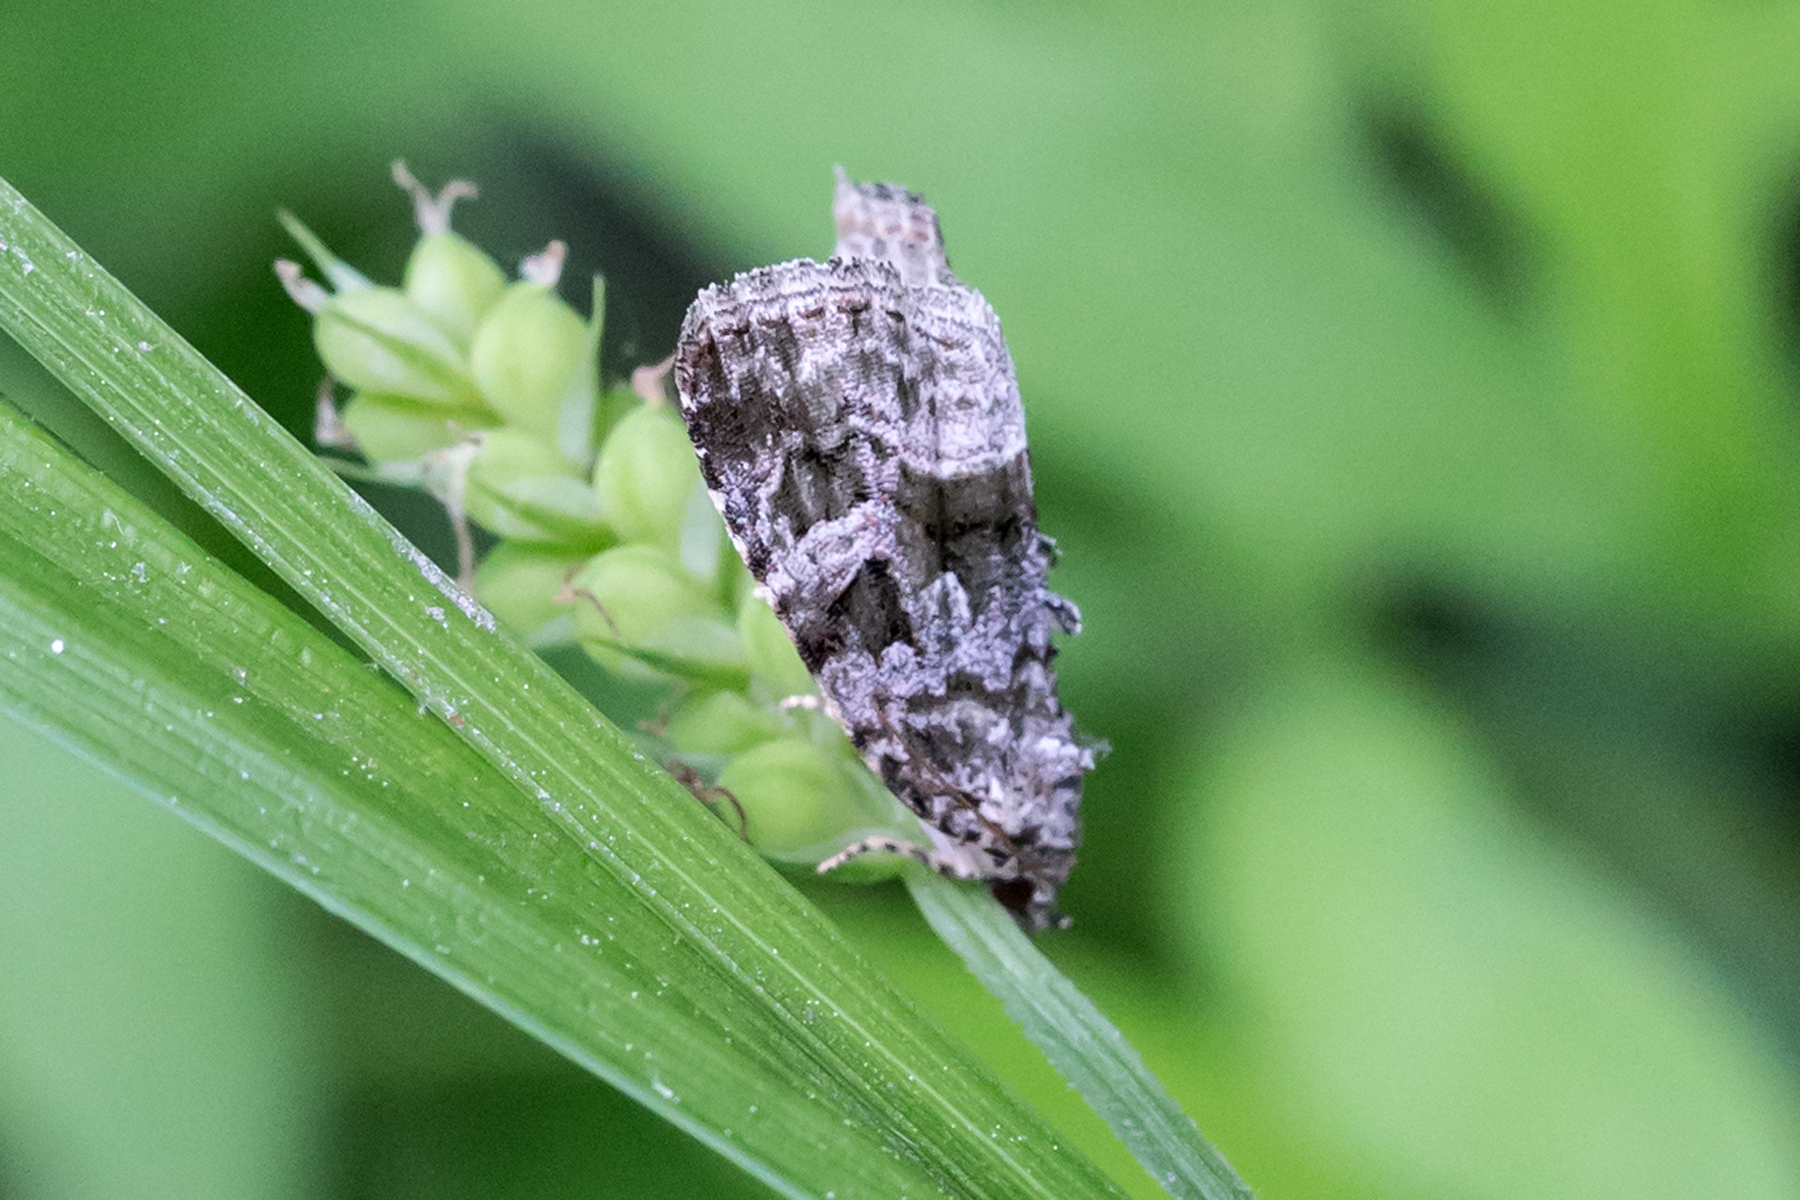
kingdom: Animalia
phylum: Arthropoda
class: Insecta
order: Lepidoptera
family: Noctuidae
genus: Protodeltote
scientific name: Protodeltote muscosula
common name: Large mossy glyph
